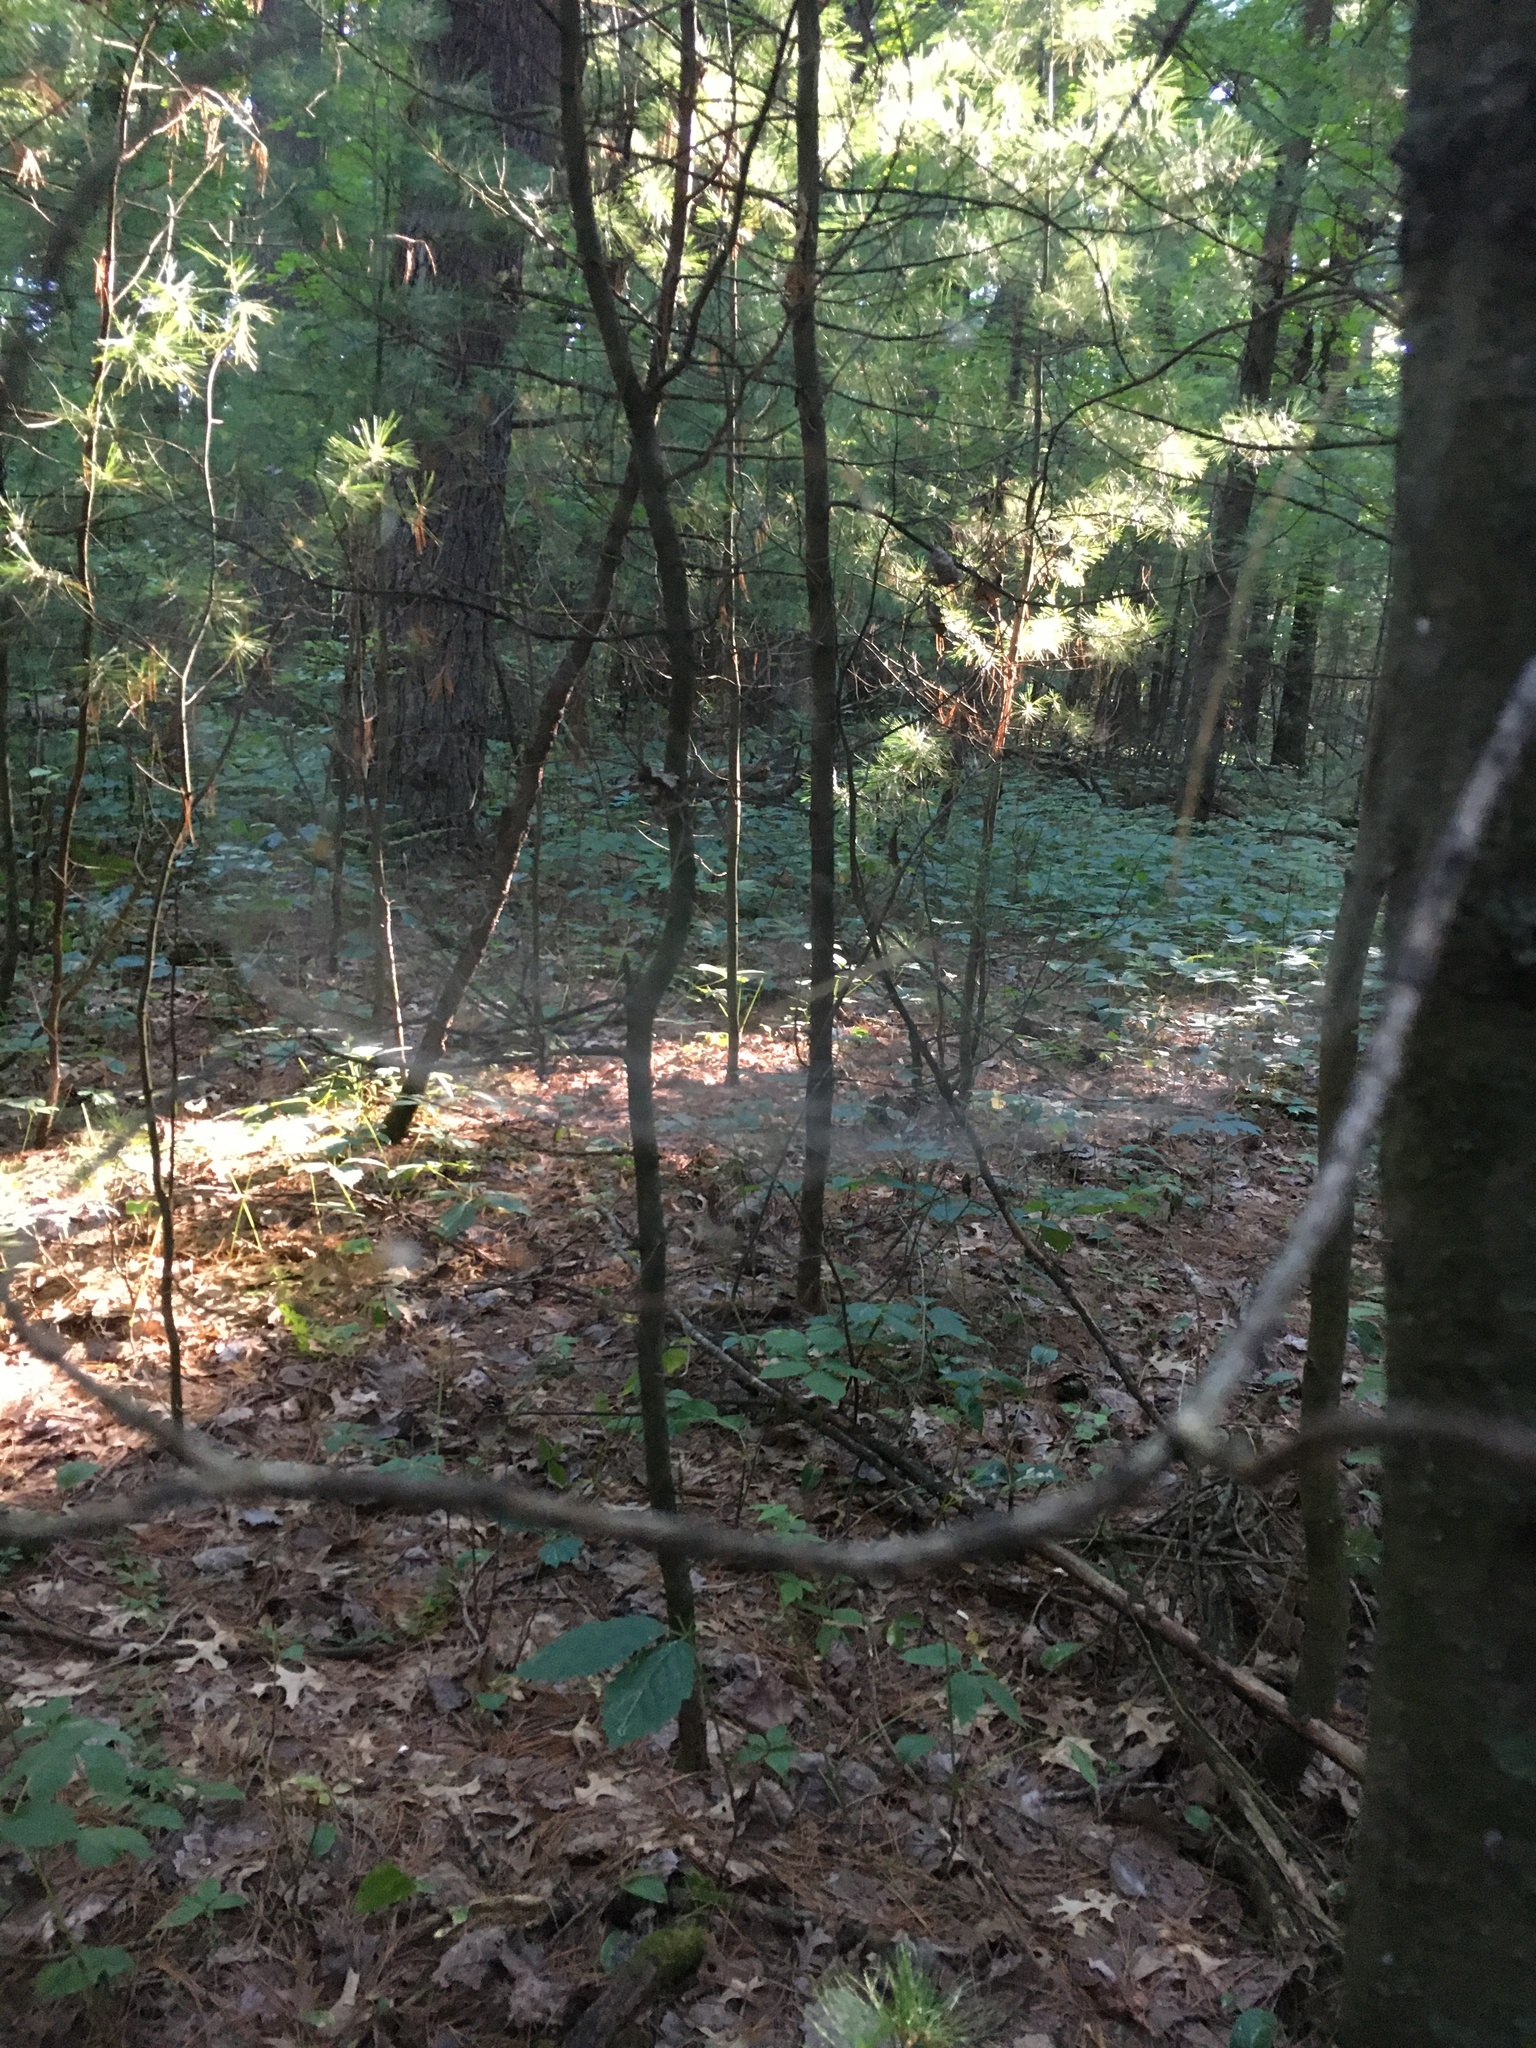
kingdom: Animalia
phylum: Arthropoda
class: Arachnida
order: Araneae
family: Linyphiidae
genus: Frontinella
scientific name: Frontinella pyramitela
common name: Bowl-and-doily spider
